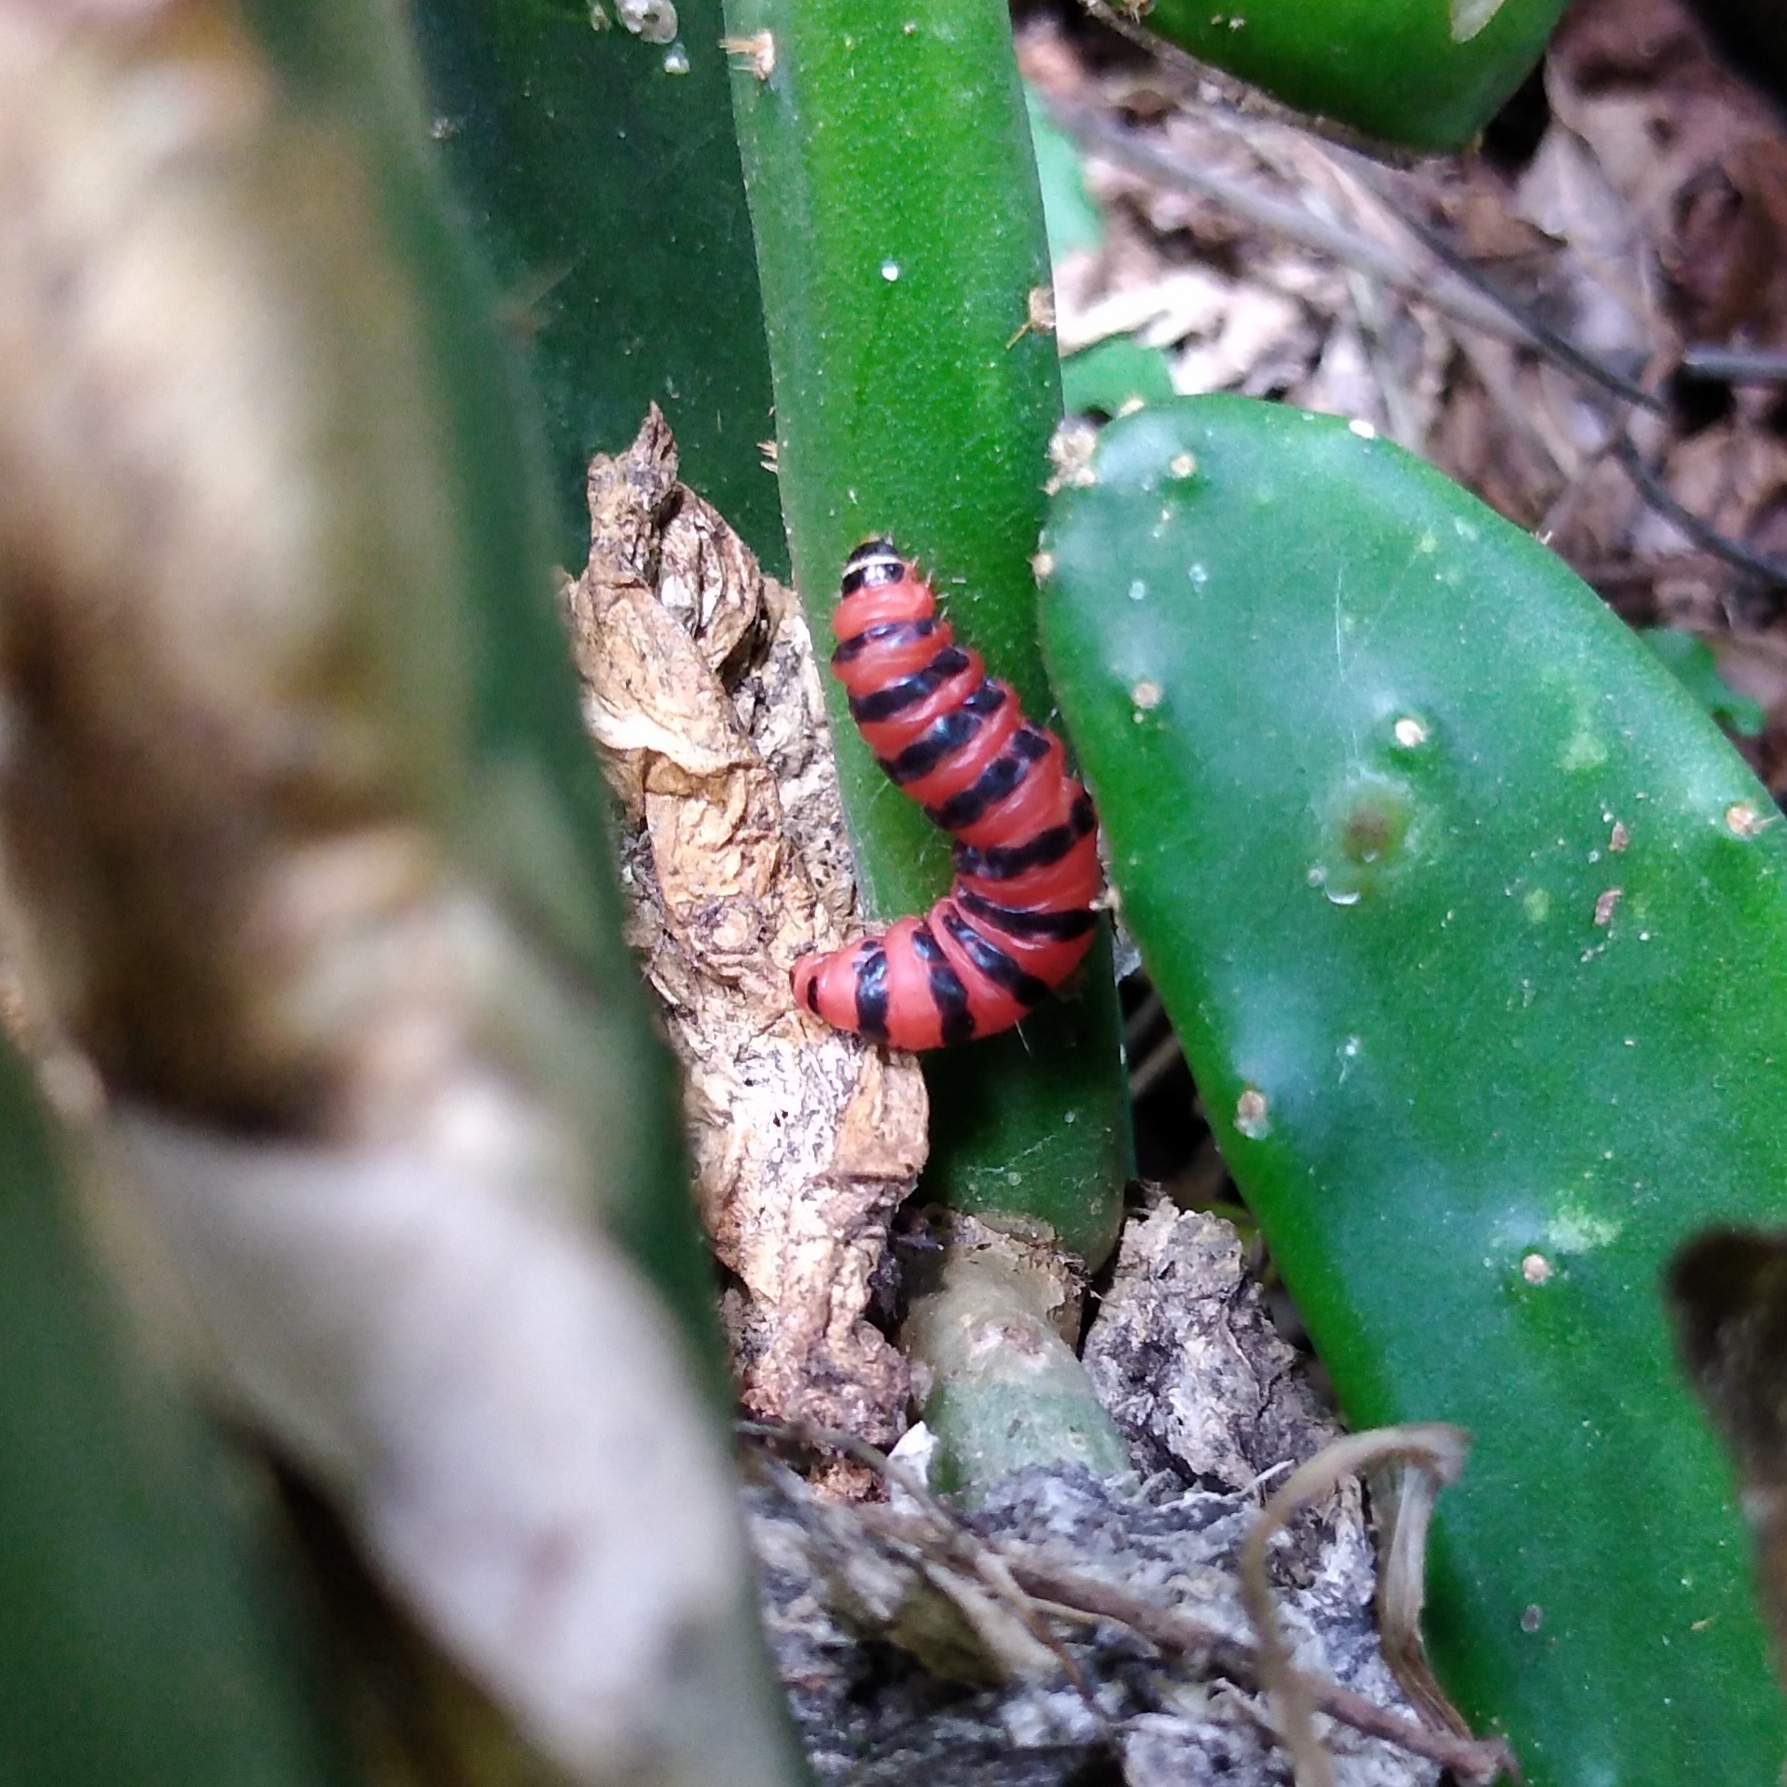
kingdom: Animalia
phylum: Arthropoda
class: Insecta
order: Lepidoptera
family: Pyralidae
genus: Cactoblastis
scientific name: Cactoblastis cactorum
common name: Cactus moth
